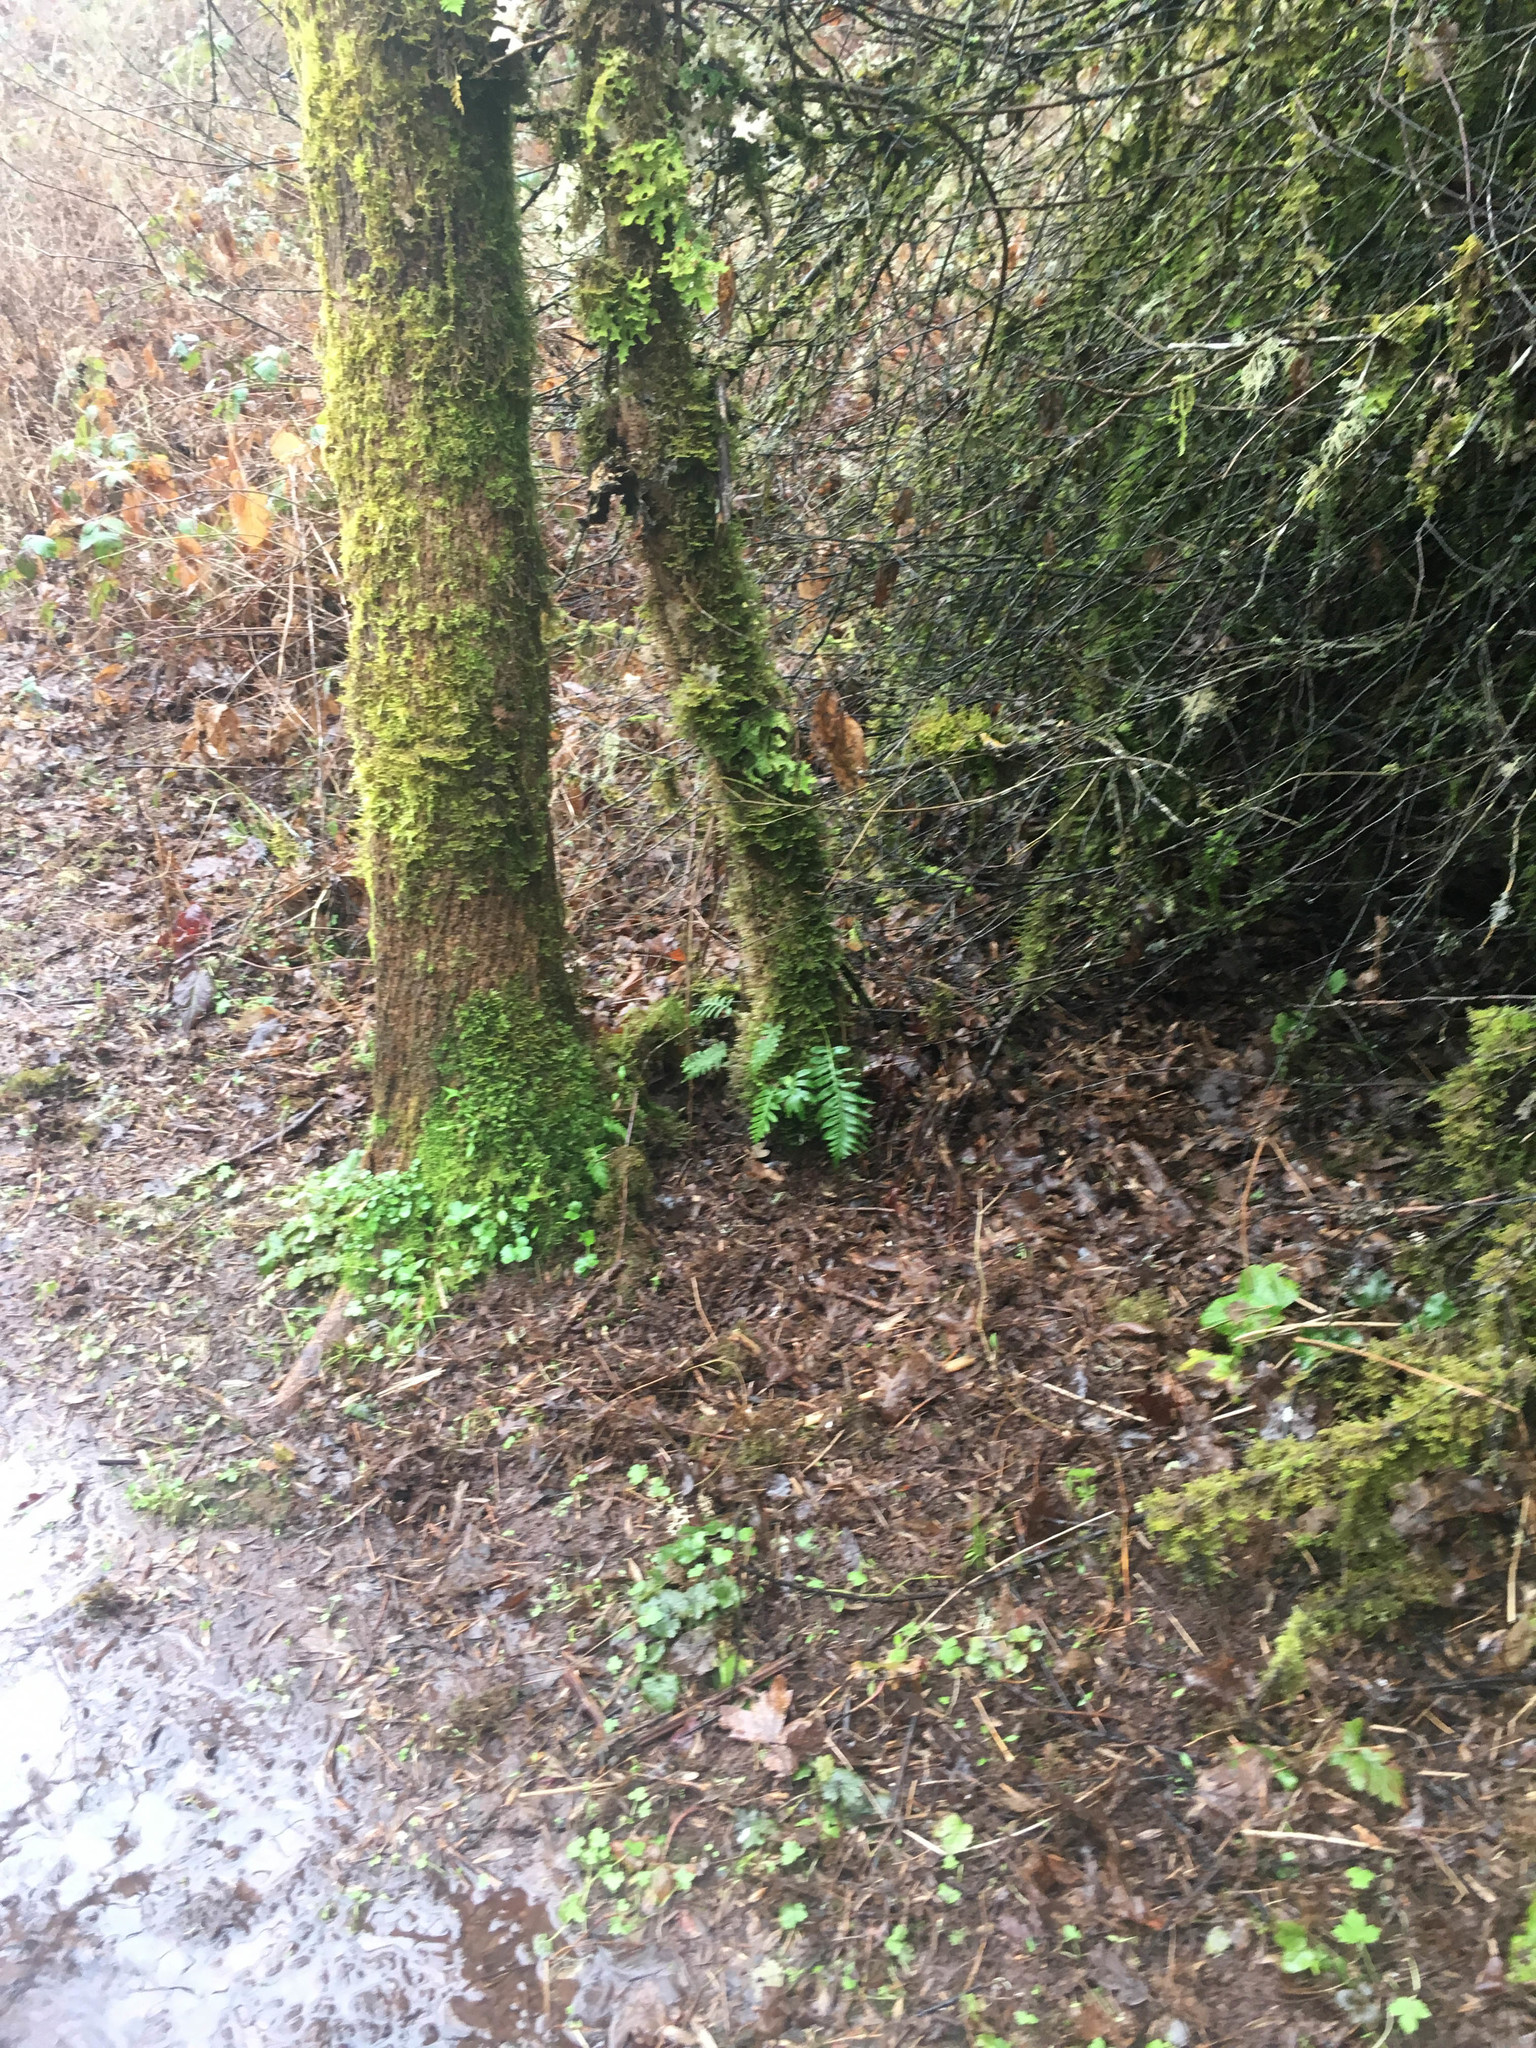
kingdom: Plantae
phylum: Tracheophyta
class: Polypodiopsida
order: Polypodiales
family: Polypodiaceae
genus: Polypodium
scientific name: Polypodium glycyrrhiza
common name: Licorice fern
